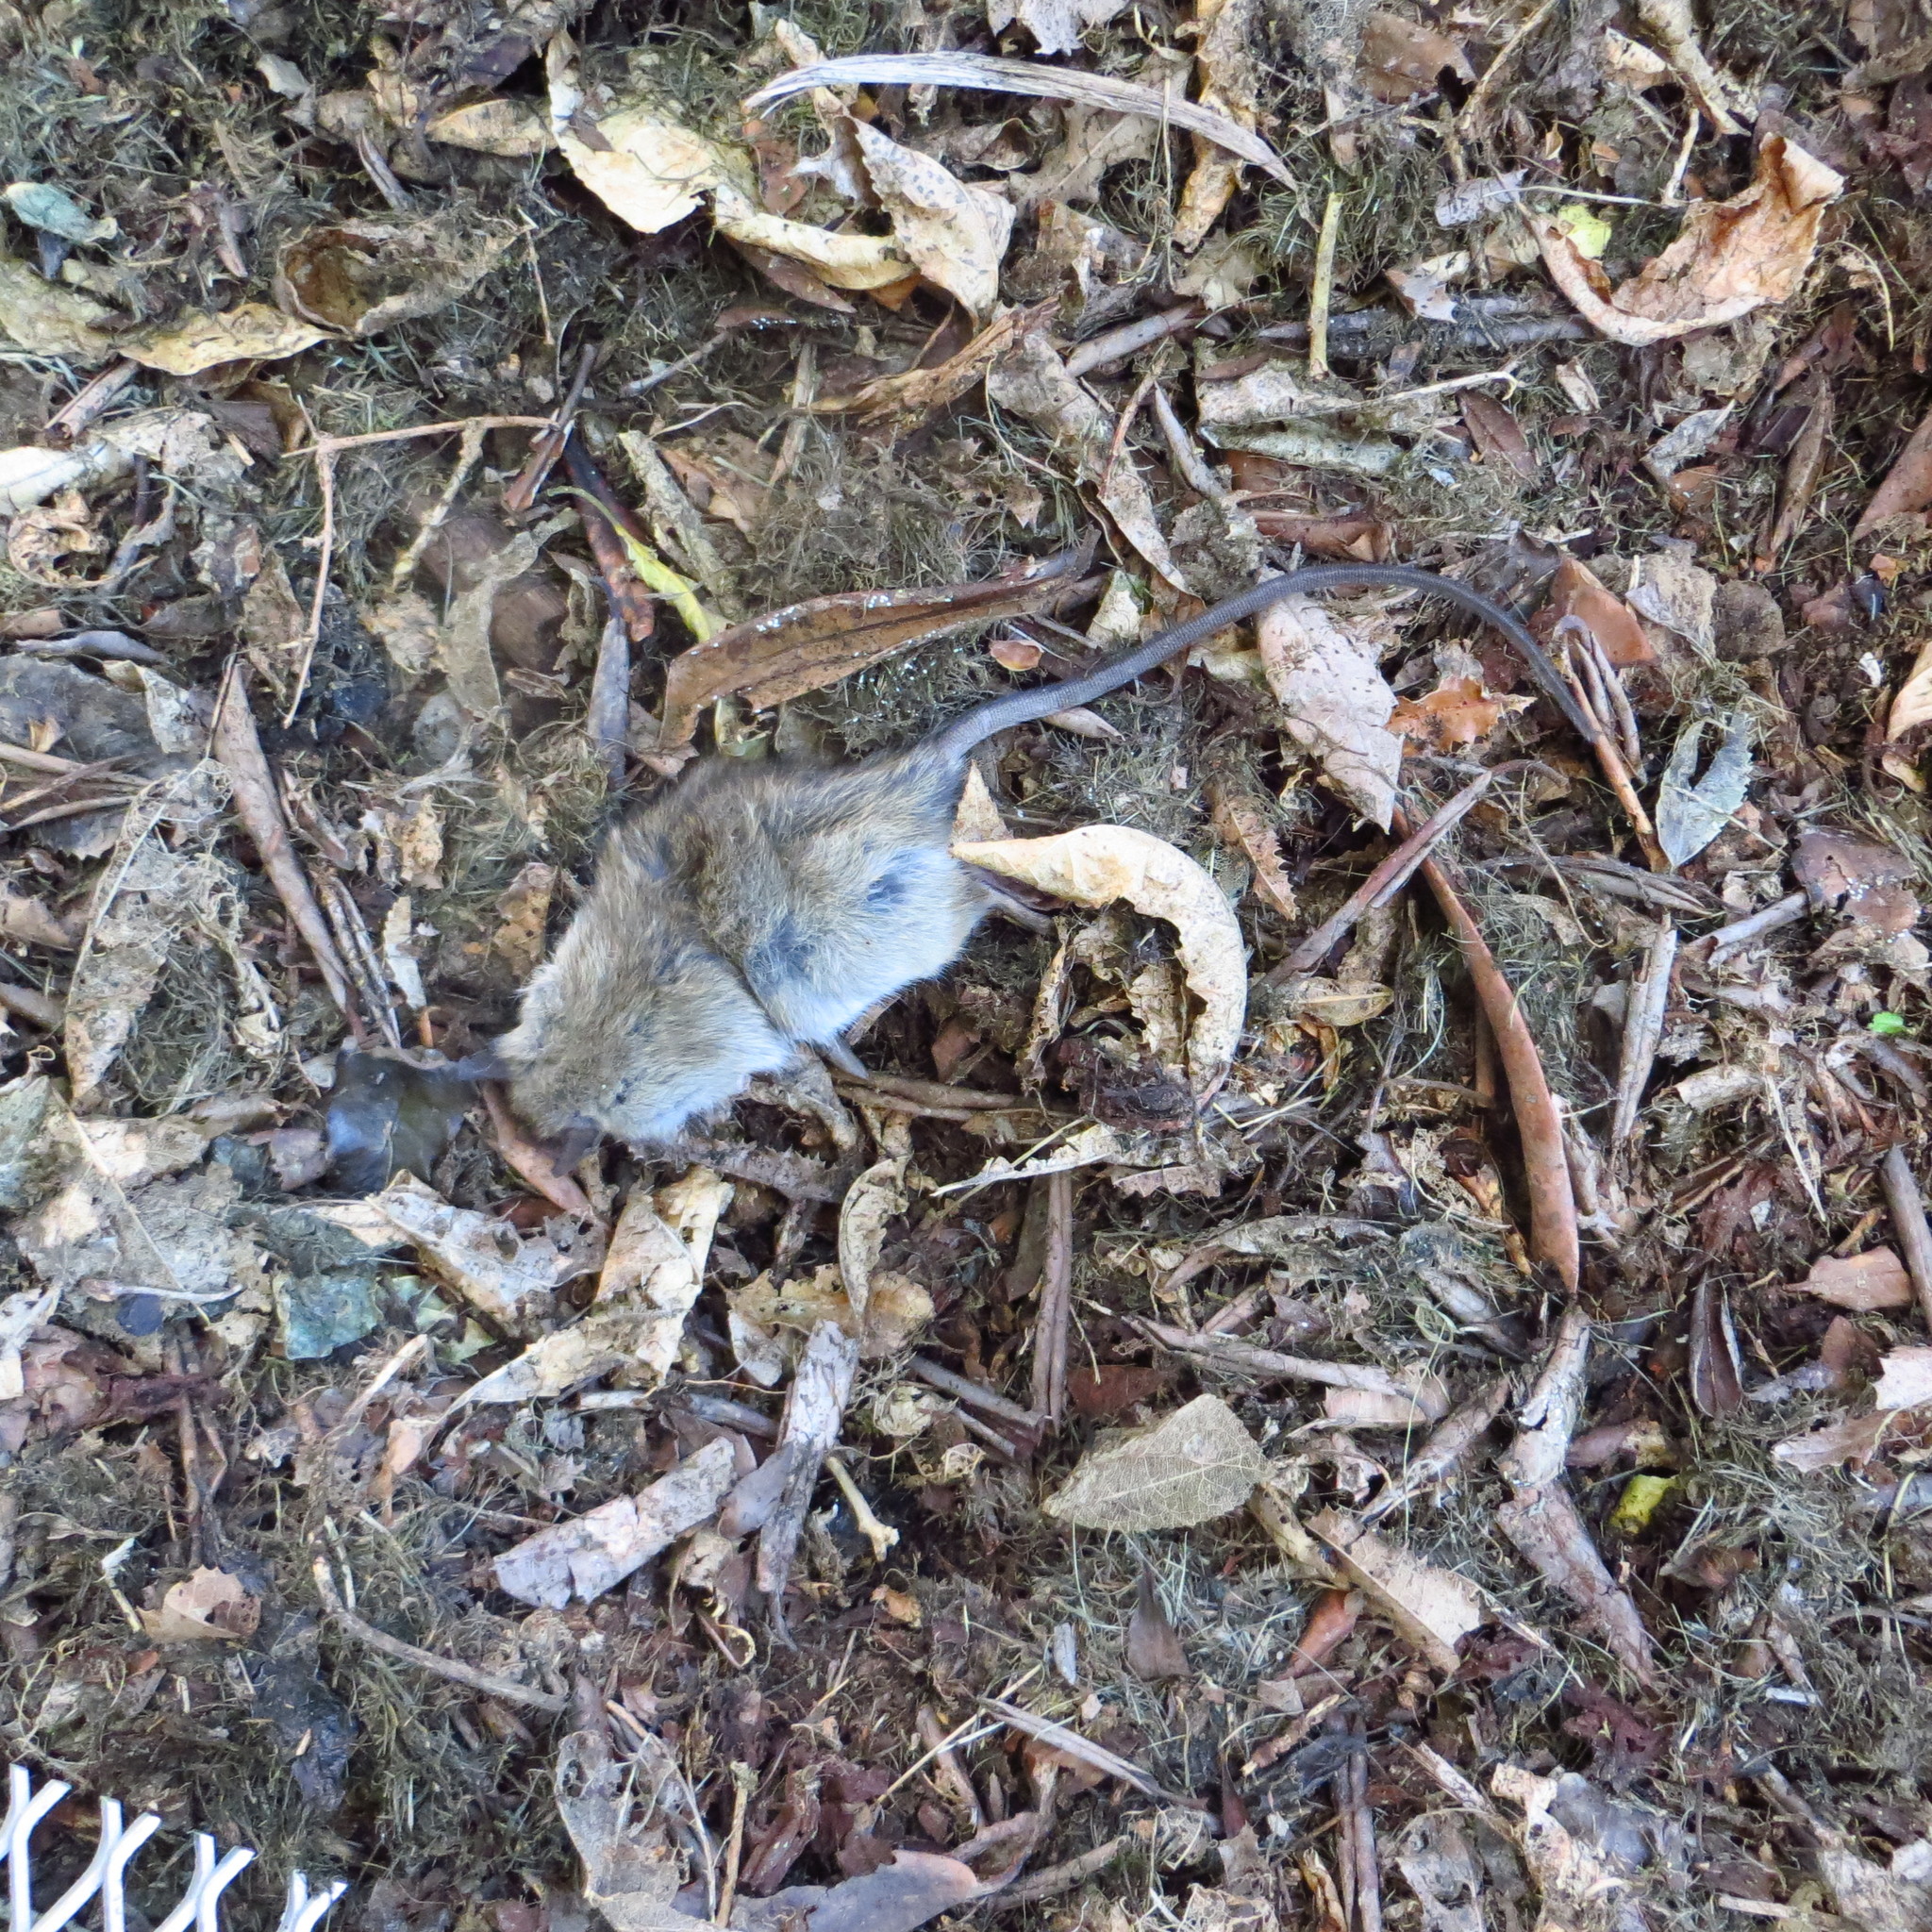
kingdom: Animalia
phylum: Chordata
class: Mammalia
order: Rodentia
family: Muridae
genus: Rattus
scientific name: Rattus rattus
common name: Black rat
